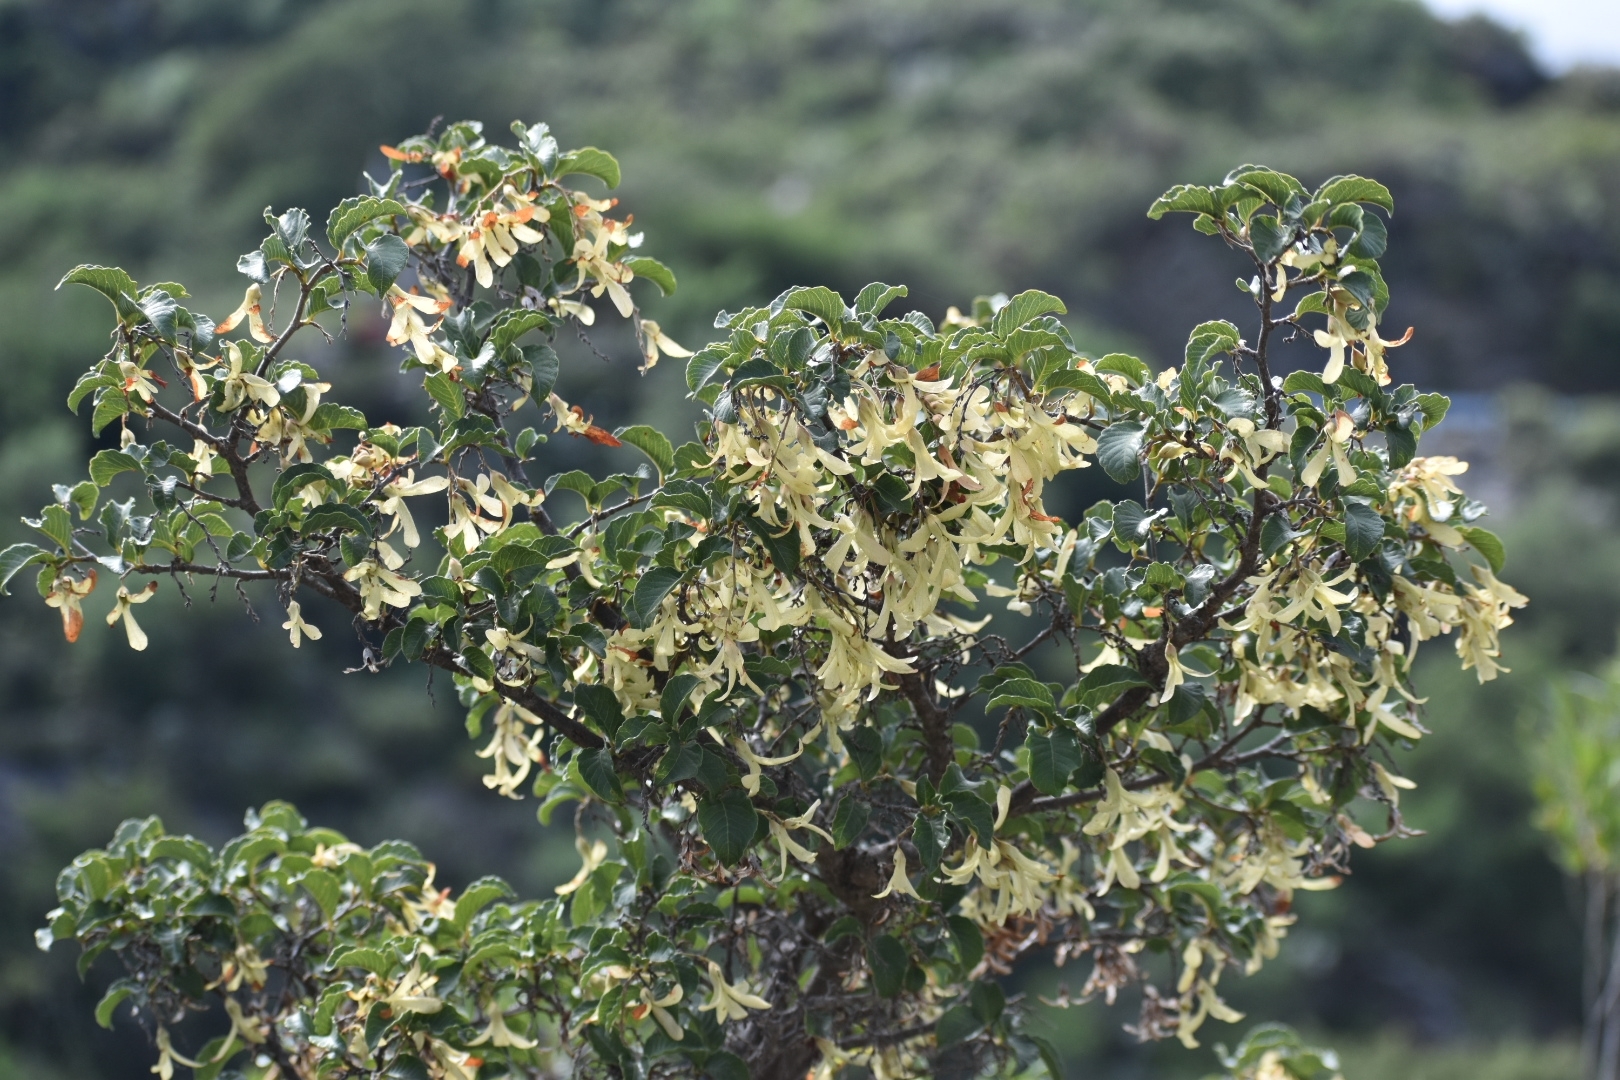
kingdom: Plantae
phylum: Tracheophyta
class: Magnoliopsida
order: Caryophyllales
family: Polygonaceae
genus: Ruprechtia
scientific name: Ruprechtia apetala
